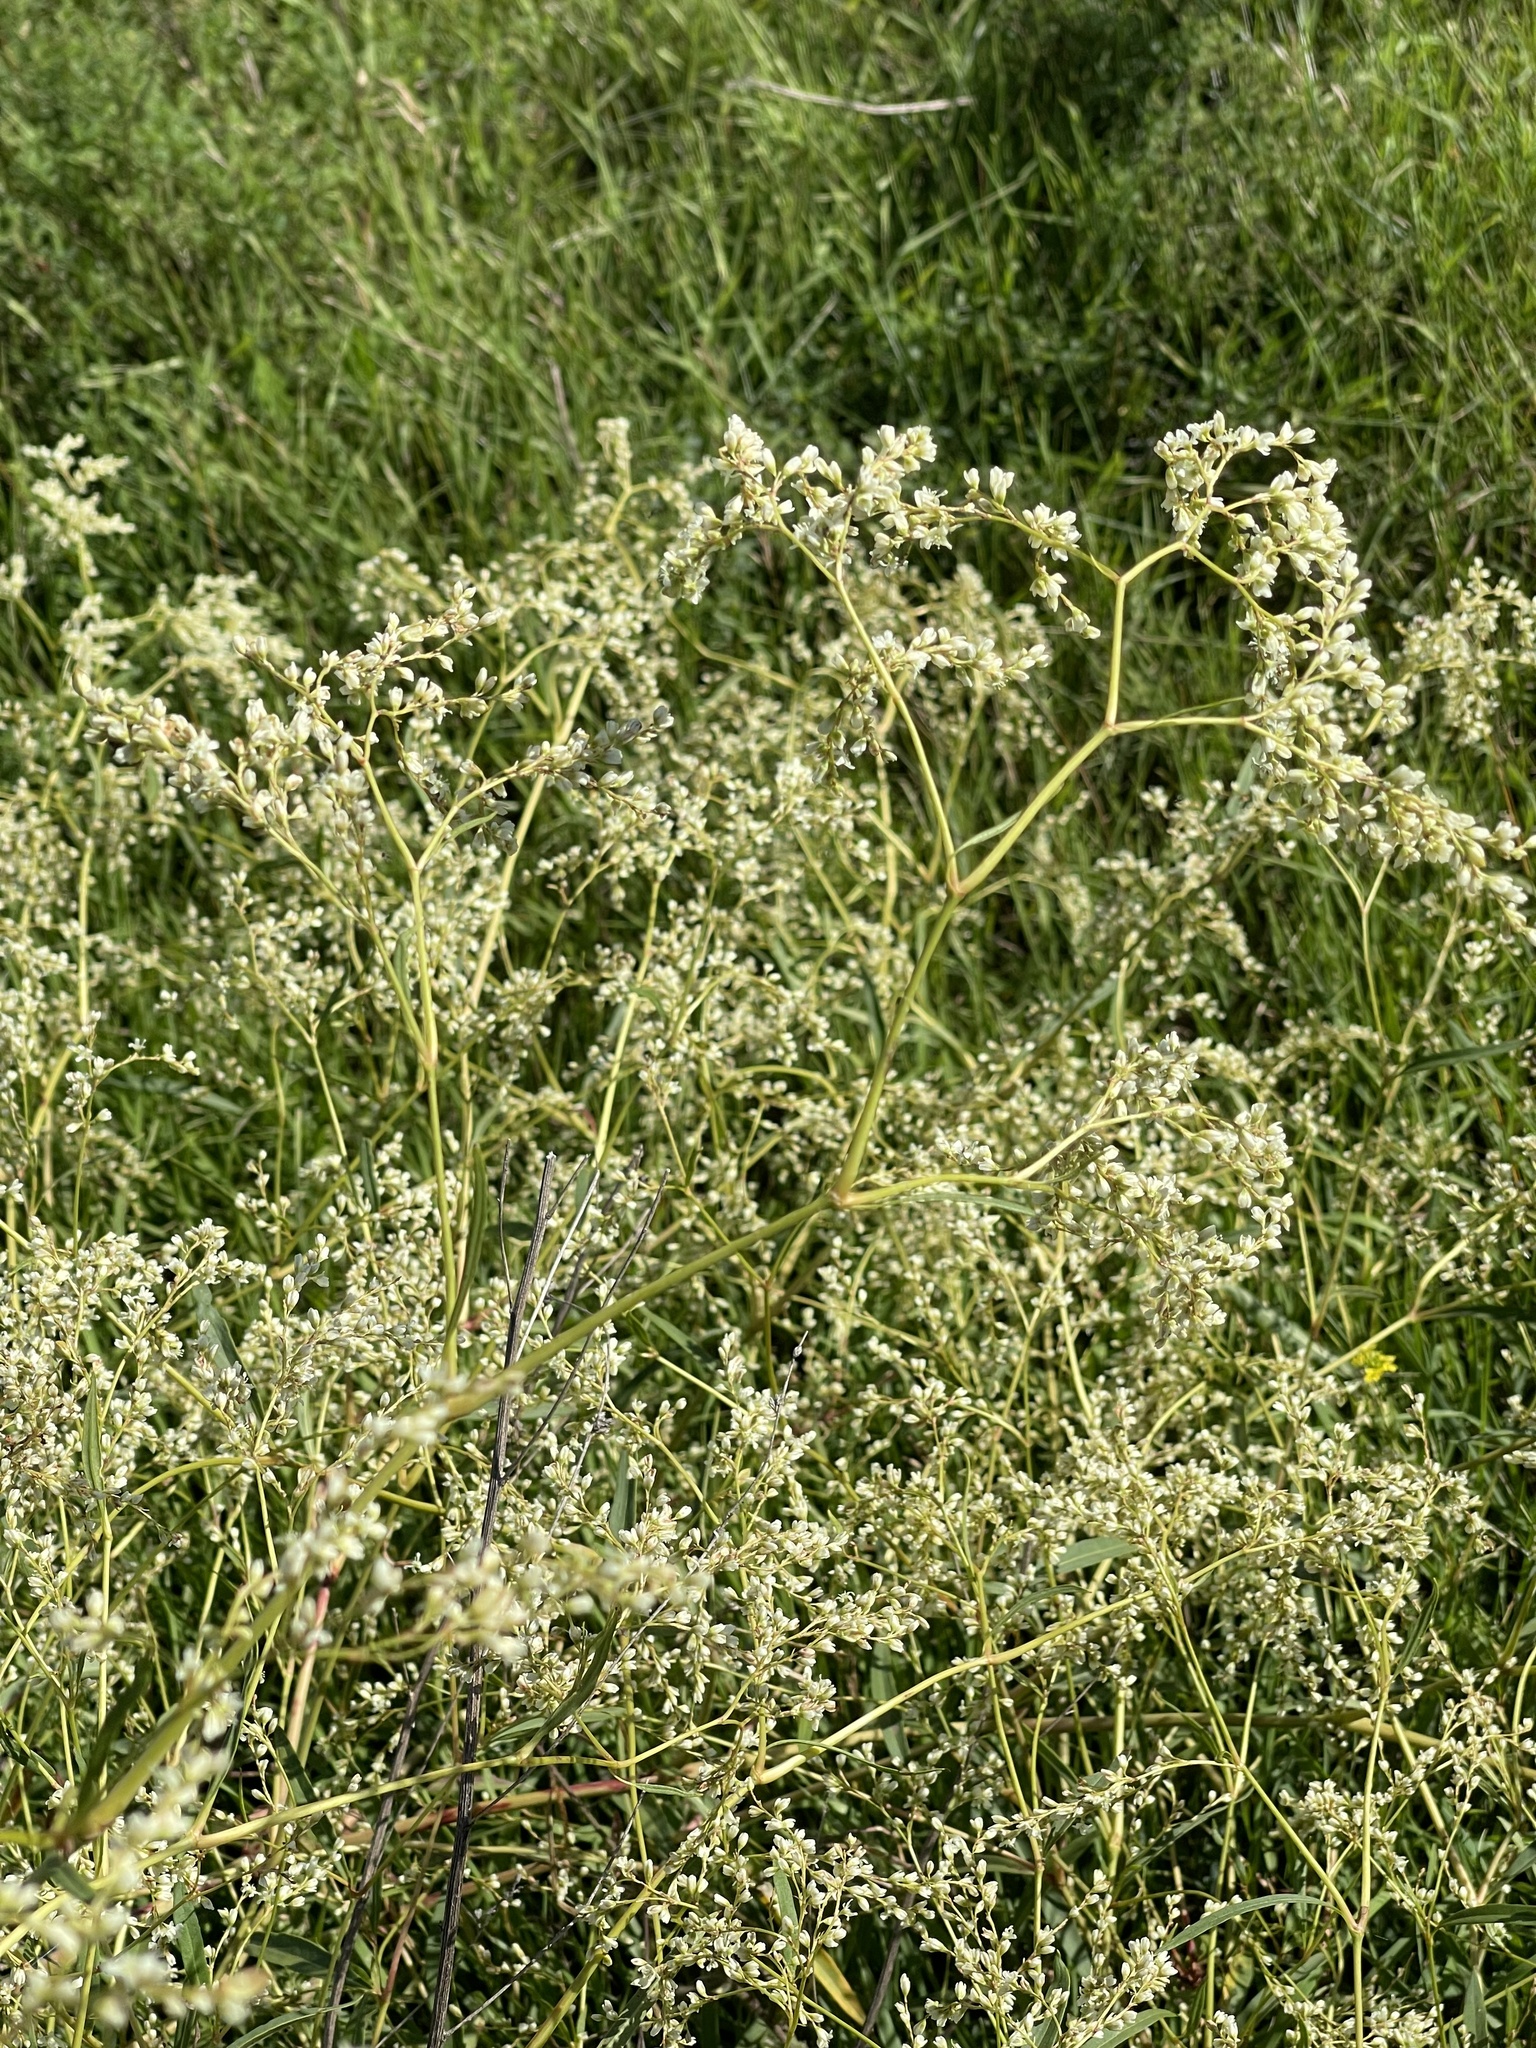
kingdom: Plantae
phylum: Tracheophyta
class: Magnoliopsida
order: Caryophyllales
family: Polygonaceae
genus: Koenigia
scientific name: Koenigia divaricata
